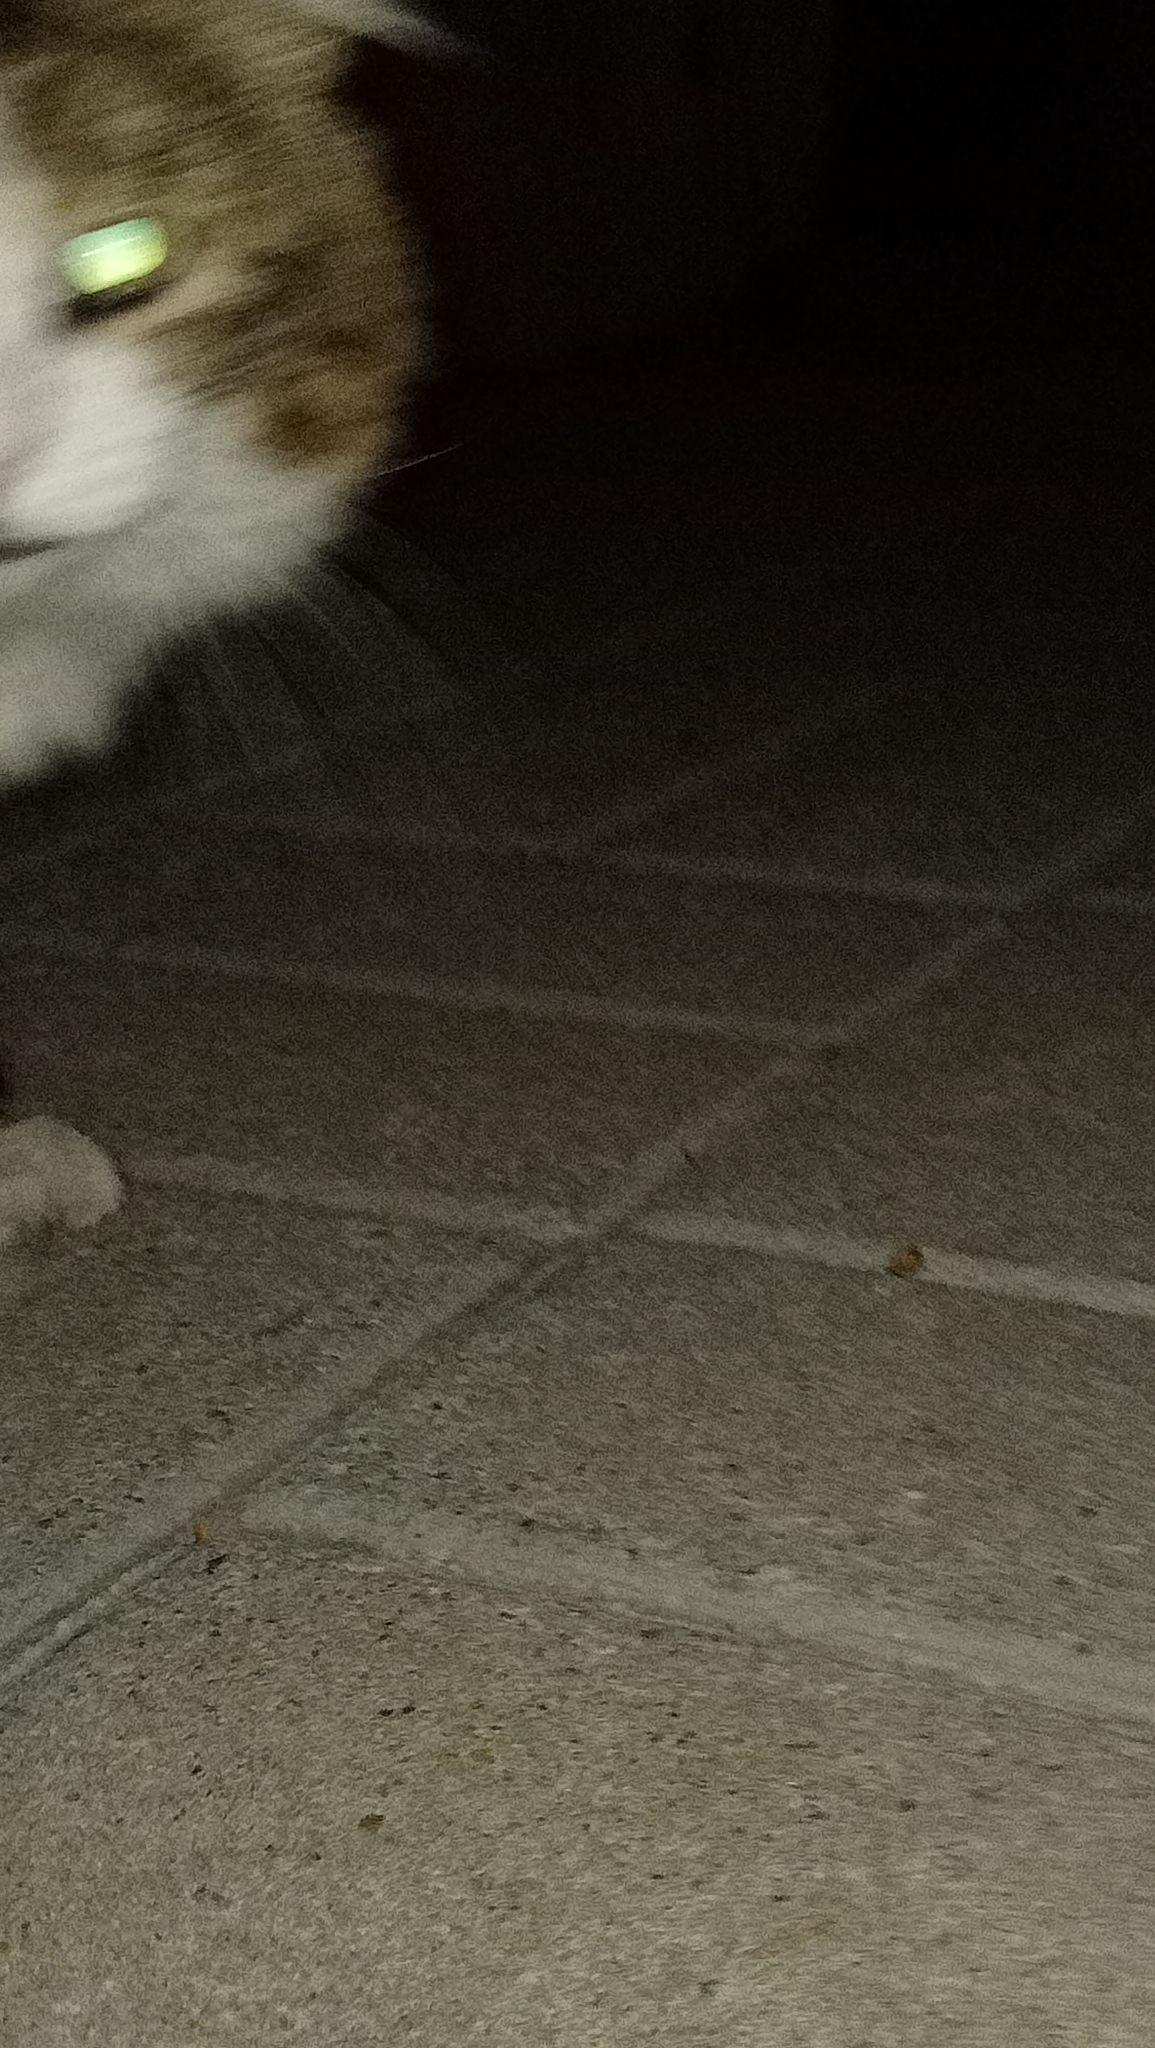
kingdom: Animalia
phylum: Chordata
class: Mammalia
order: Carnivora
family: Felidae
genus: Felis
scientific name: Felis catus
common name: Domestic cat
